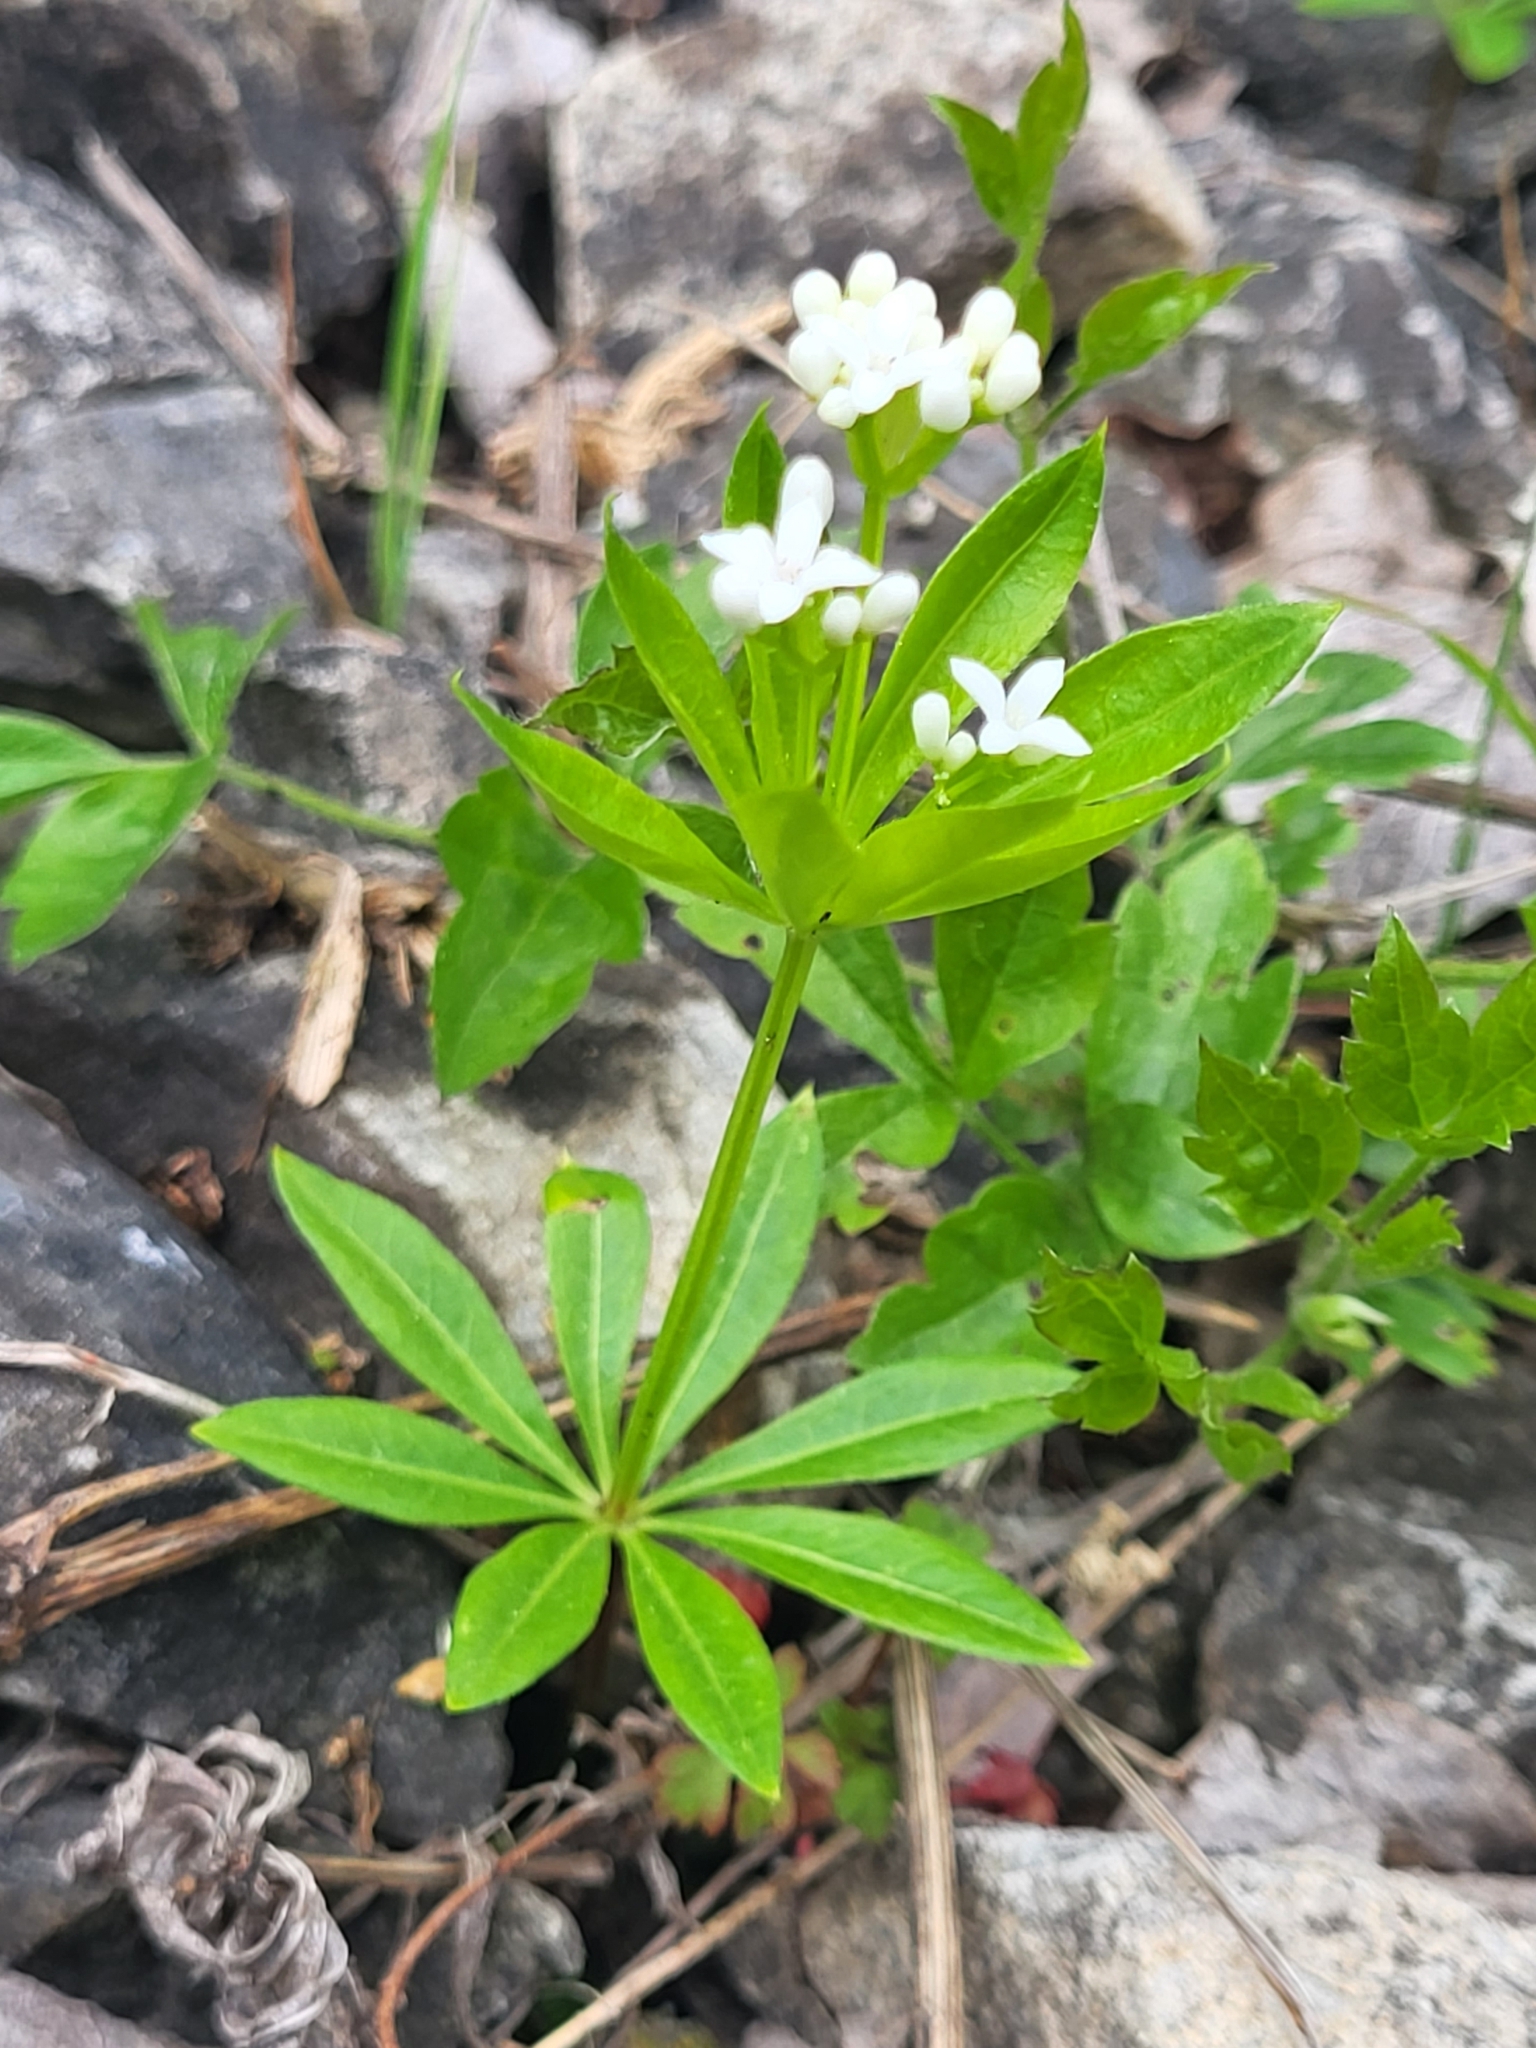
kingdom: Plantae
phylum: Tracheophyta
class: Magnoliopsida
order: Gentianales
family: Rubiaceae
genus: Galium
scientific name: Galium odoratum
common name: Sweet woodruff
